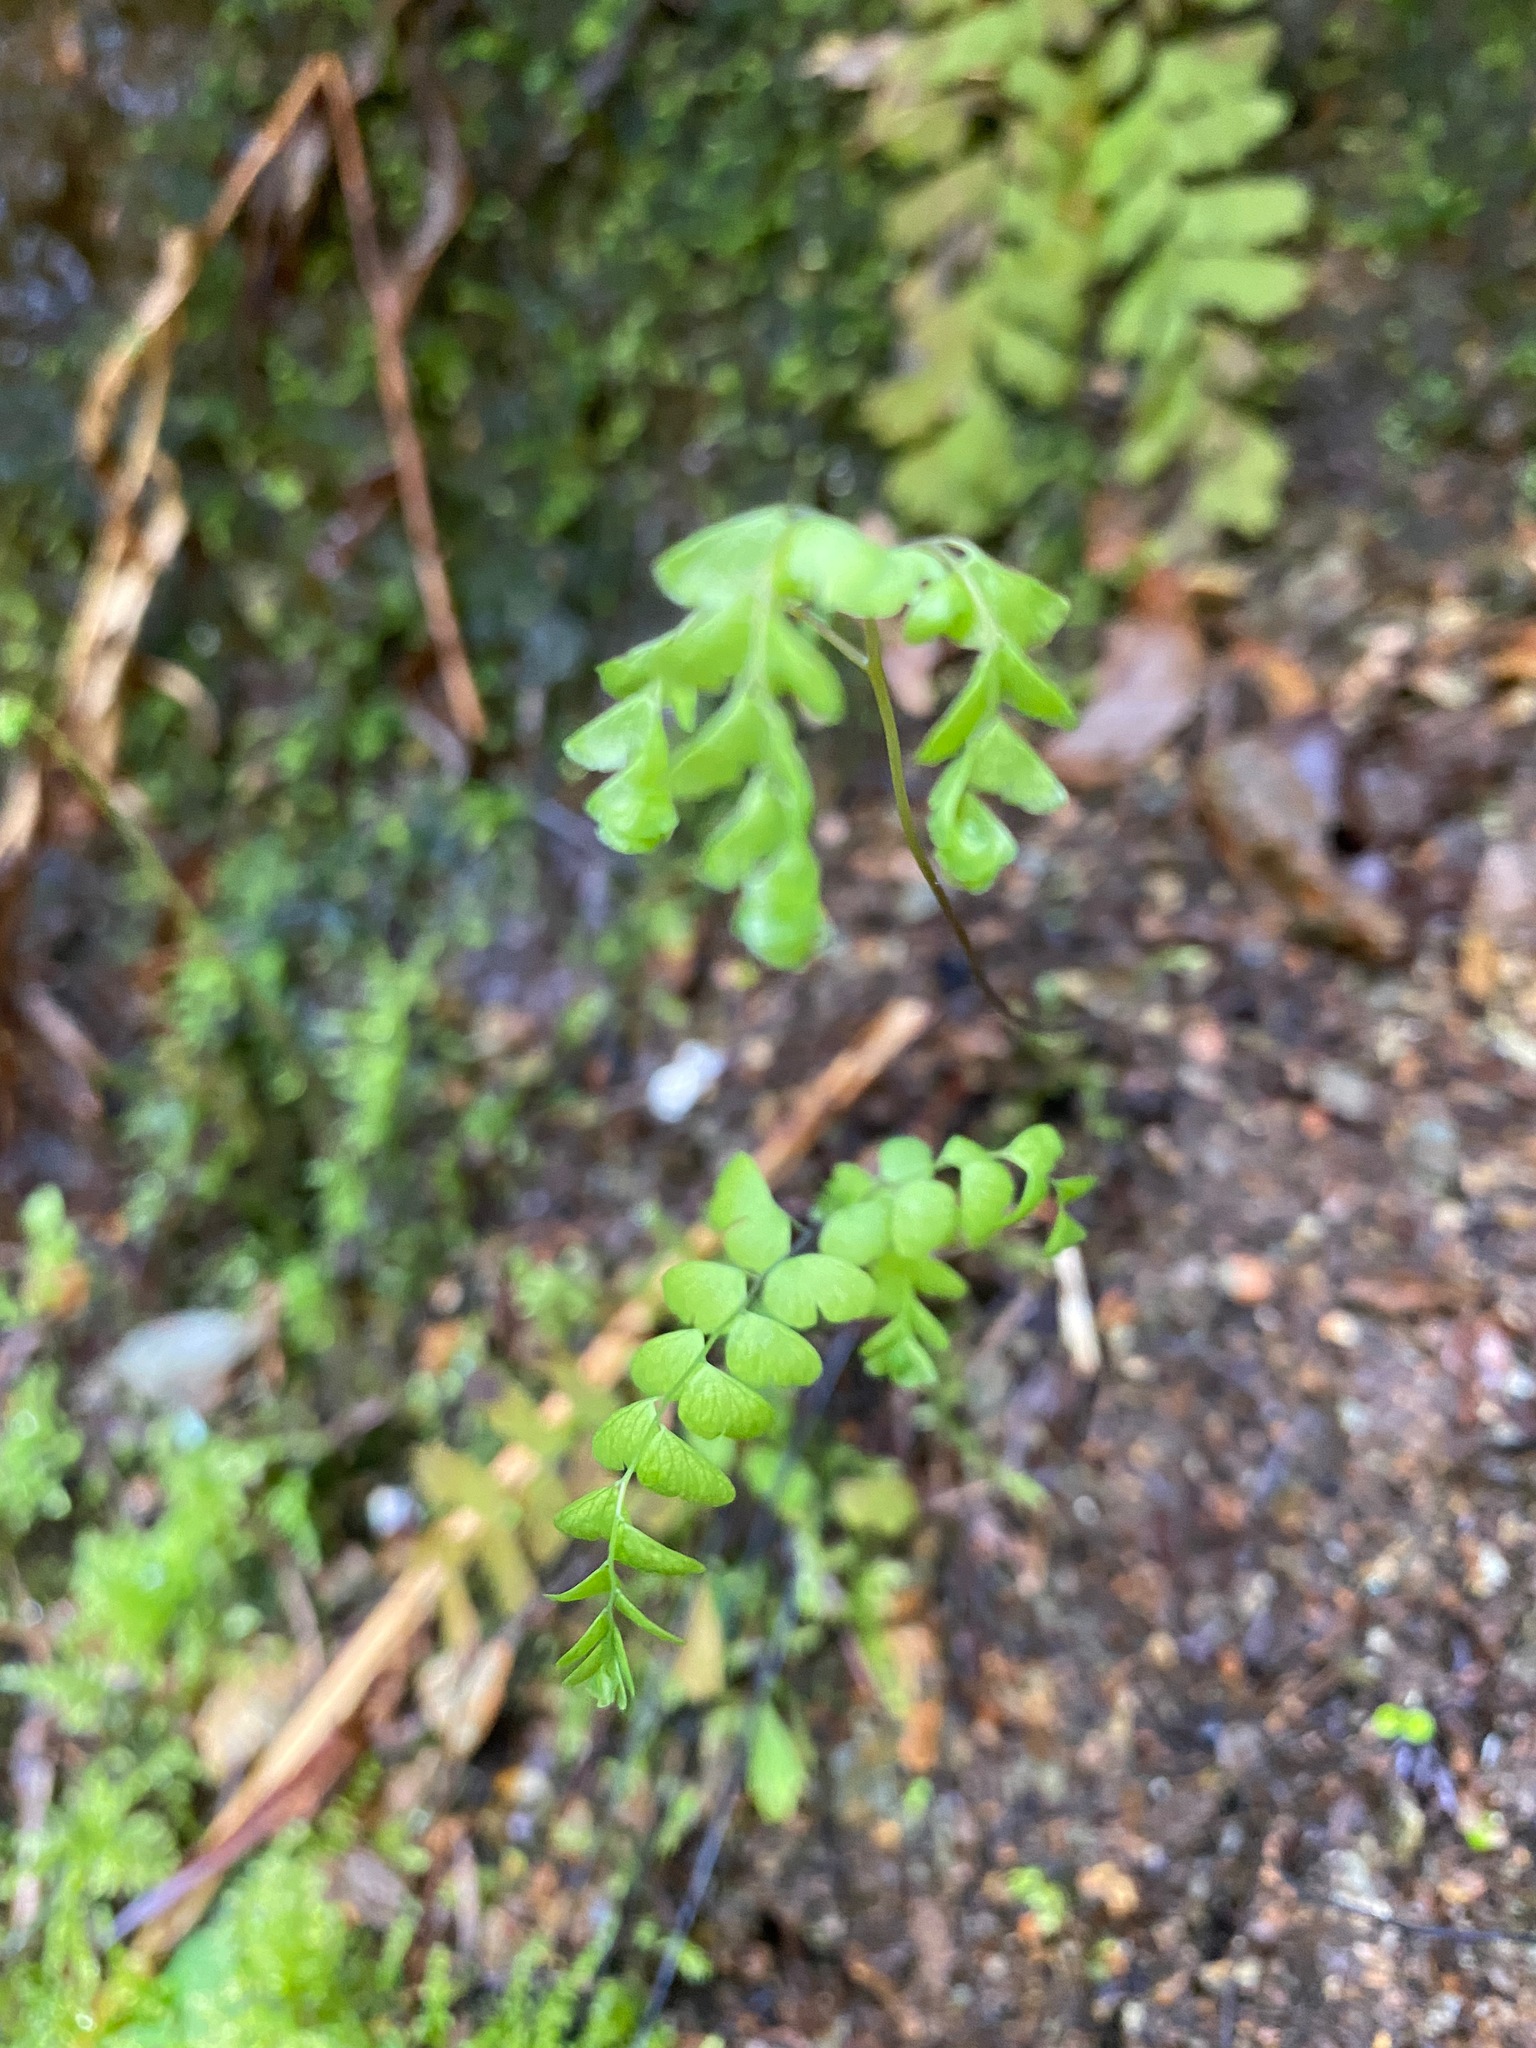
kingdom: Plantae
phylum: Tracheophyta
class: Polypodiopsida
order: Polypodiales
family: Pteridaceae
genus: Adiantum
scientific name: Adiantum aleuticum
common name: Aleutian maidenhair fern
